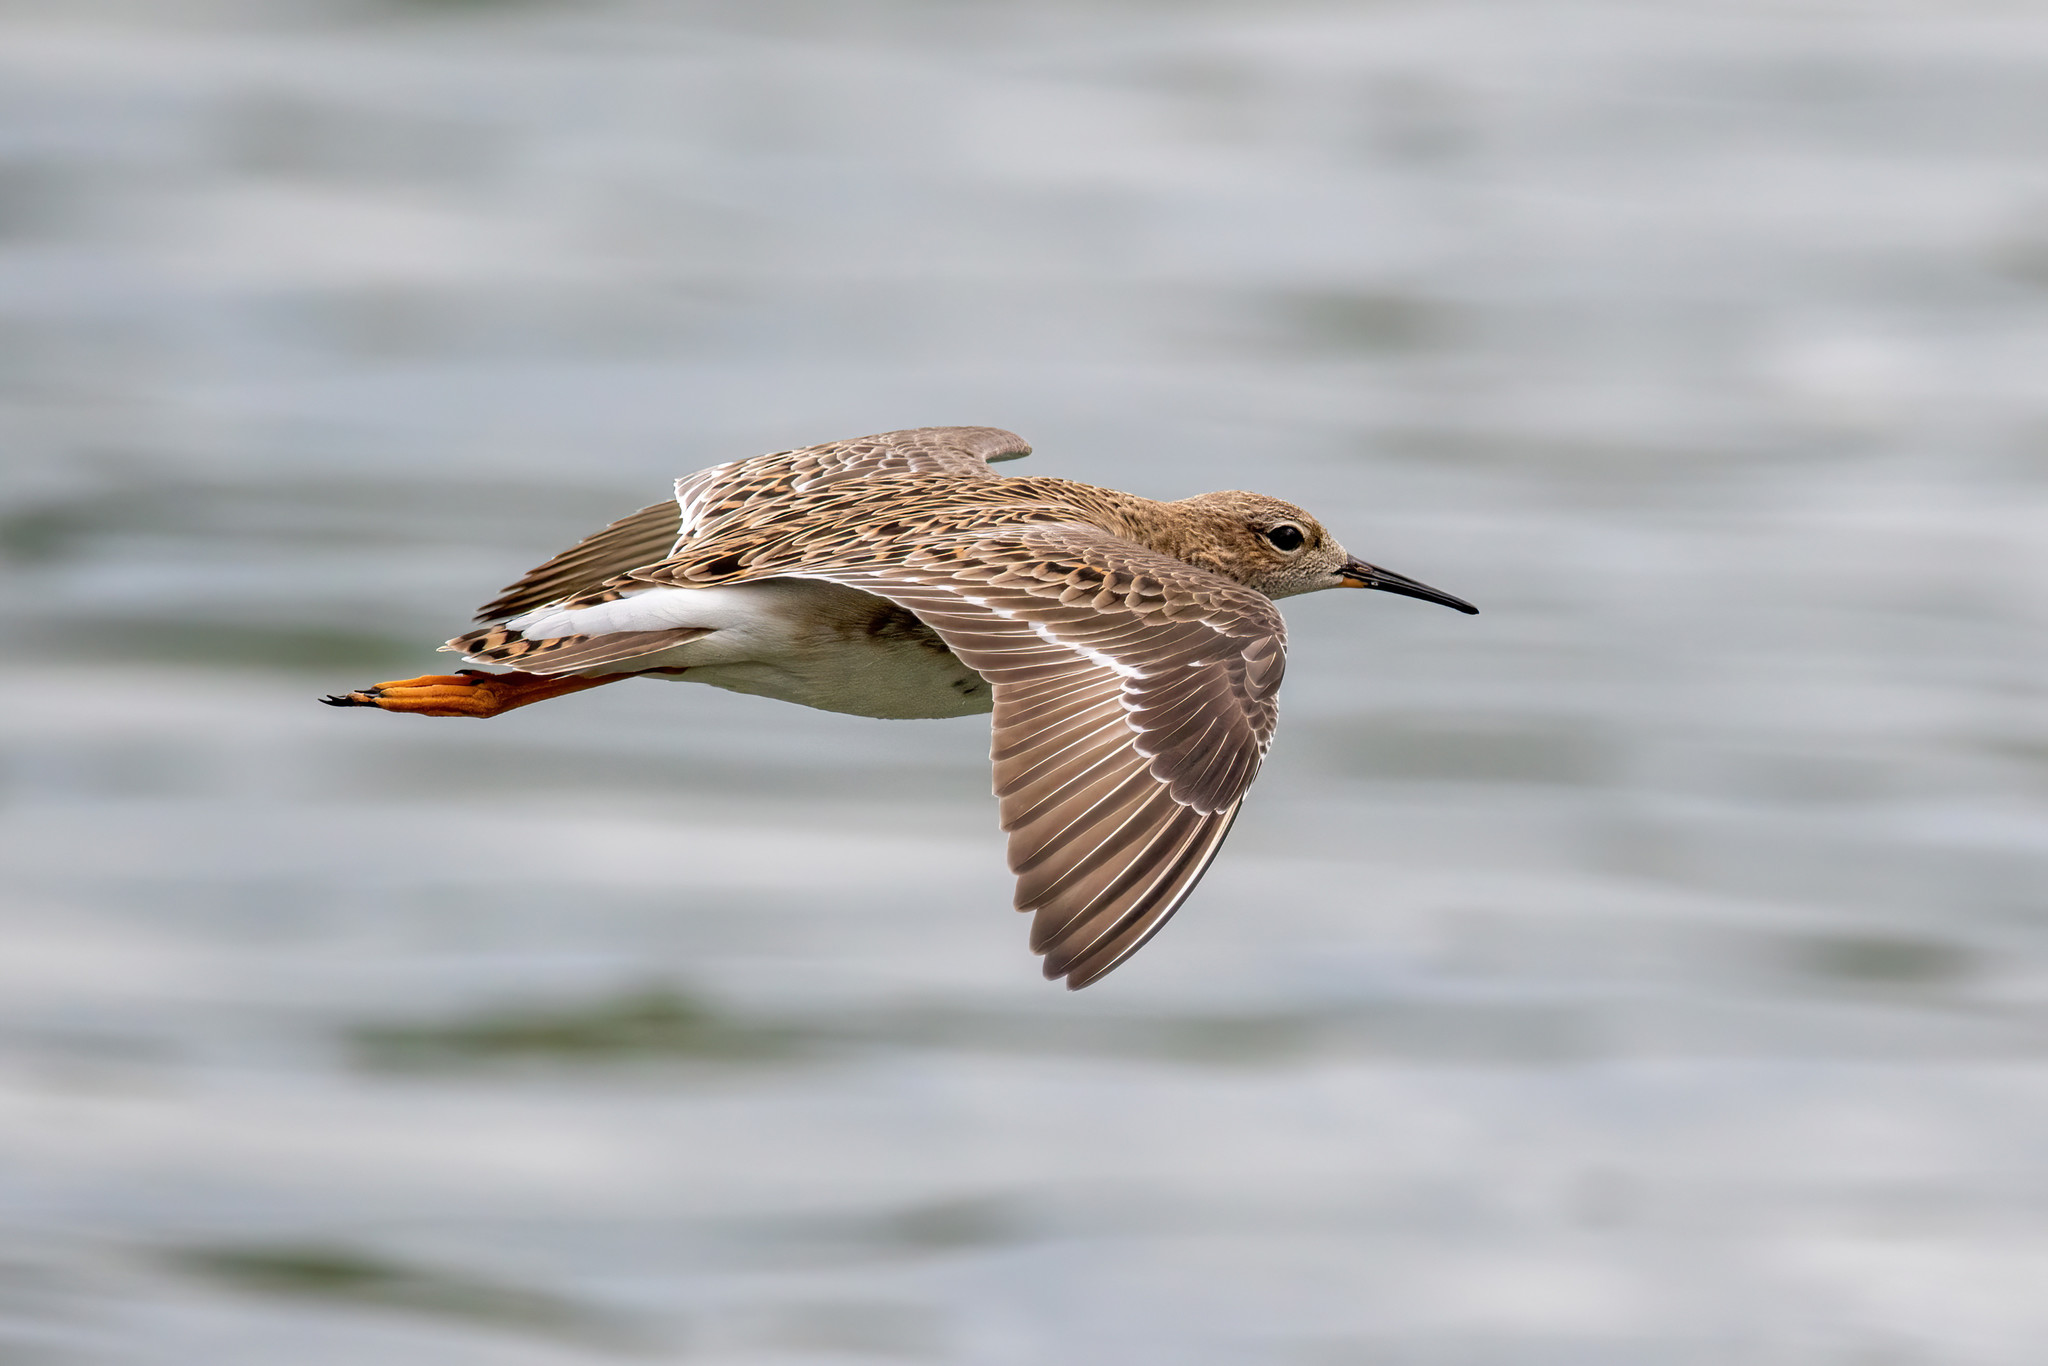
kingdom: Animalia
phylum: Chordata
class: Aves
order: Charadriiformes
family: Scolopacidae
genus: Calidris
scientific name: Calidris pugnax
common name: Ruff
